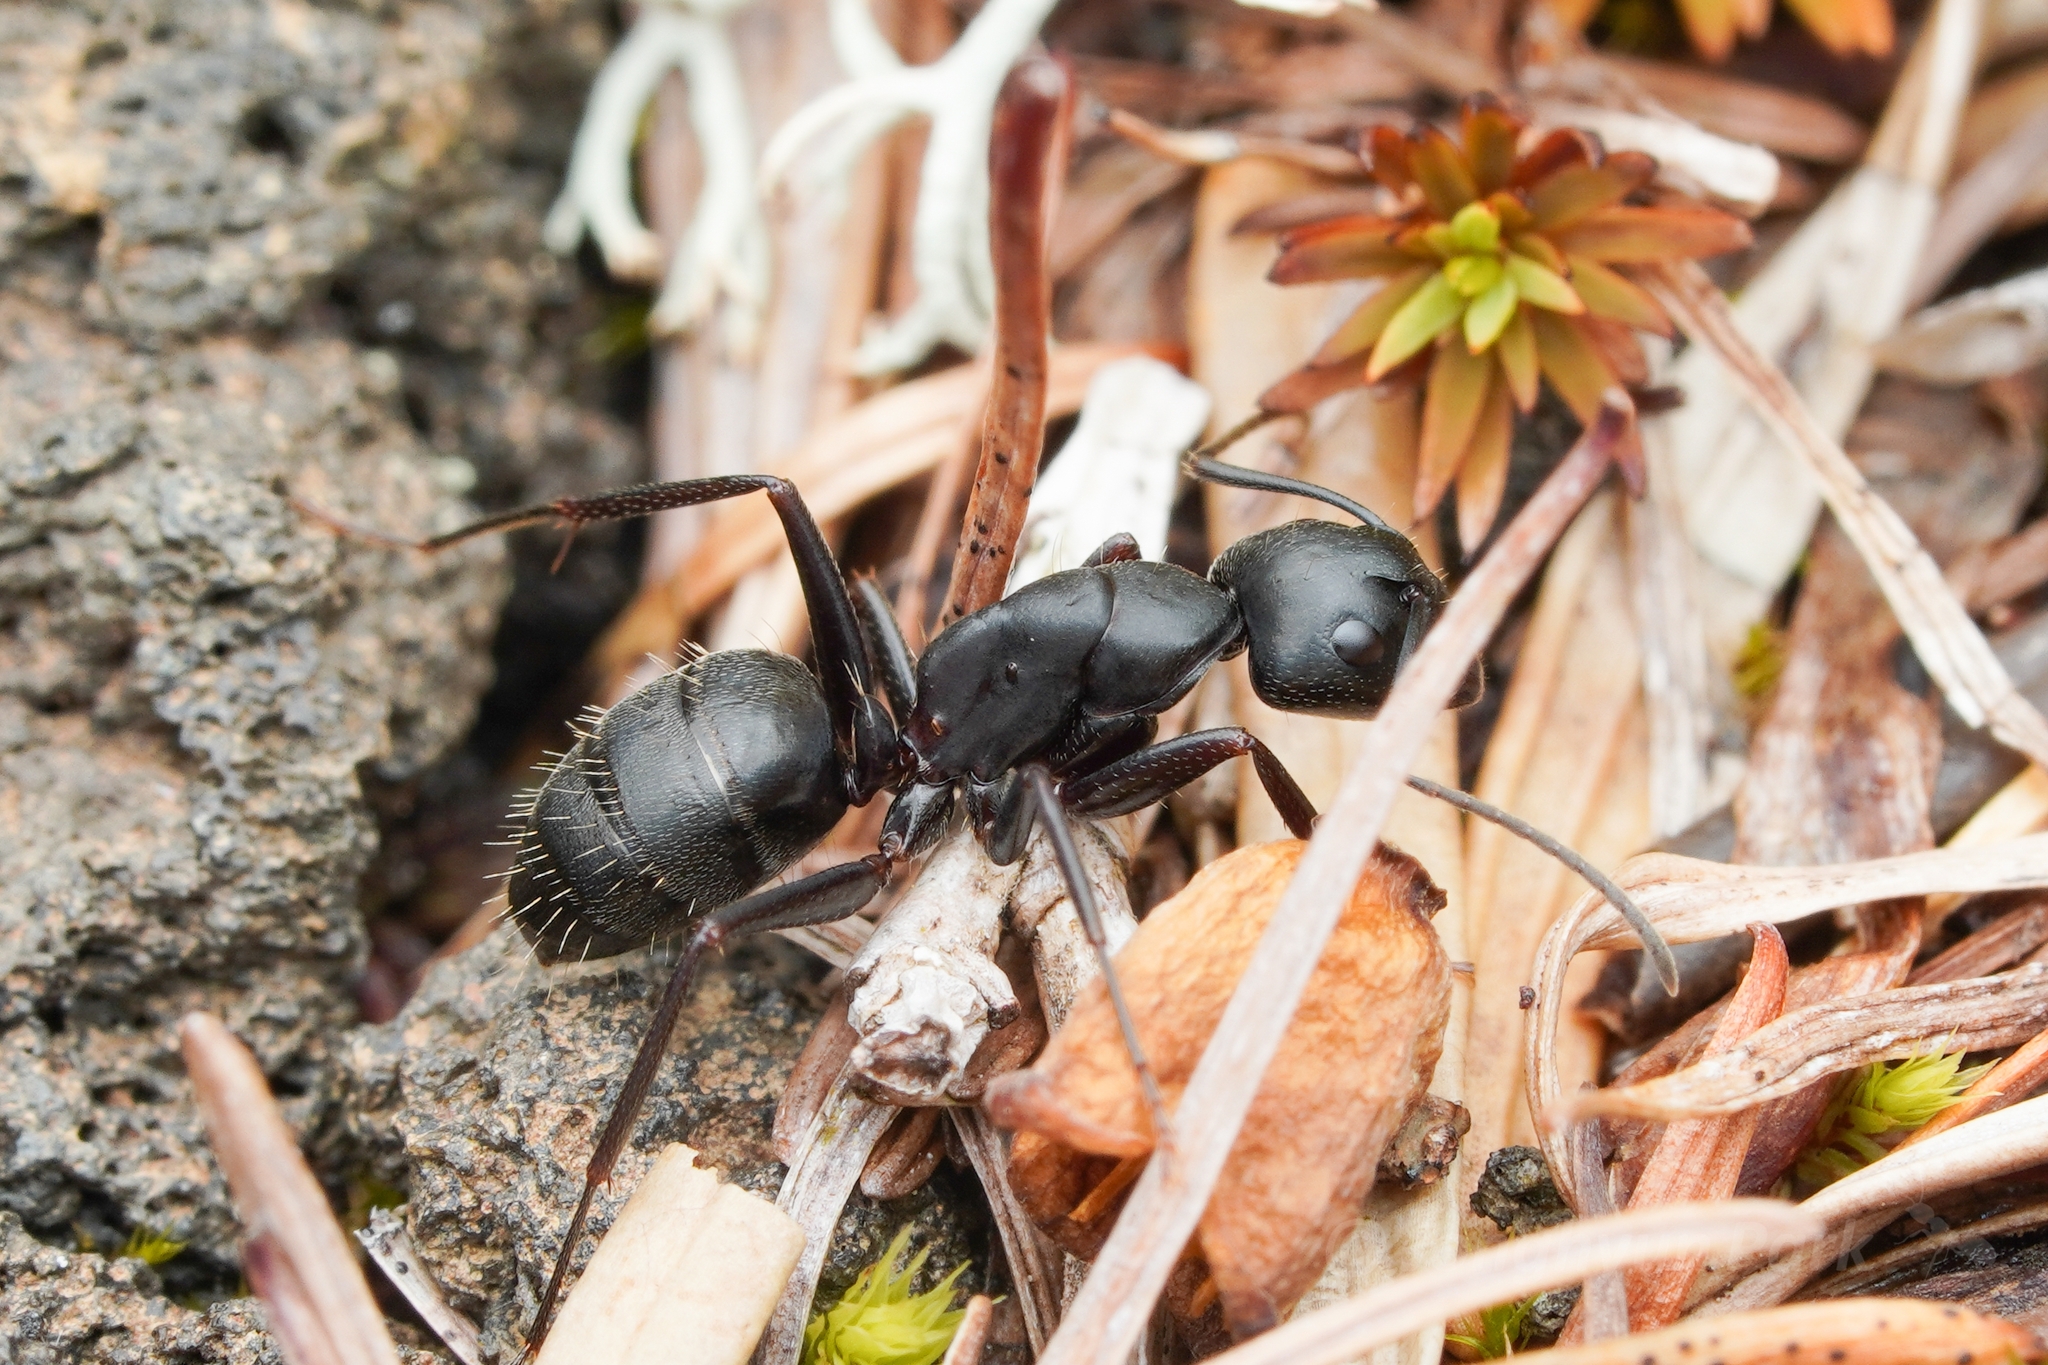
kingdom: Animalia
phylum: Arthropoda
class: Insecta
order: Hymenoptera
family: Formicidae
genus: Camponotus
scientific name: Camponotus herculeanus
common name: Hercules ant
